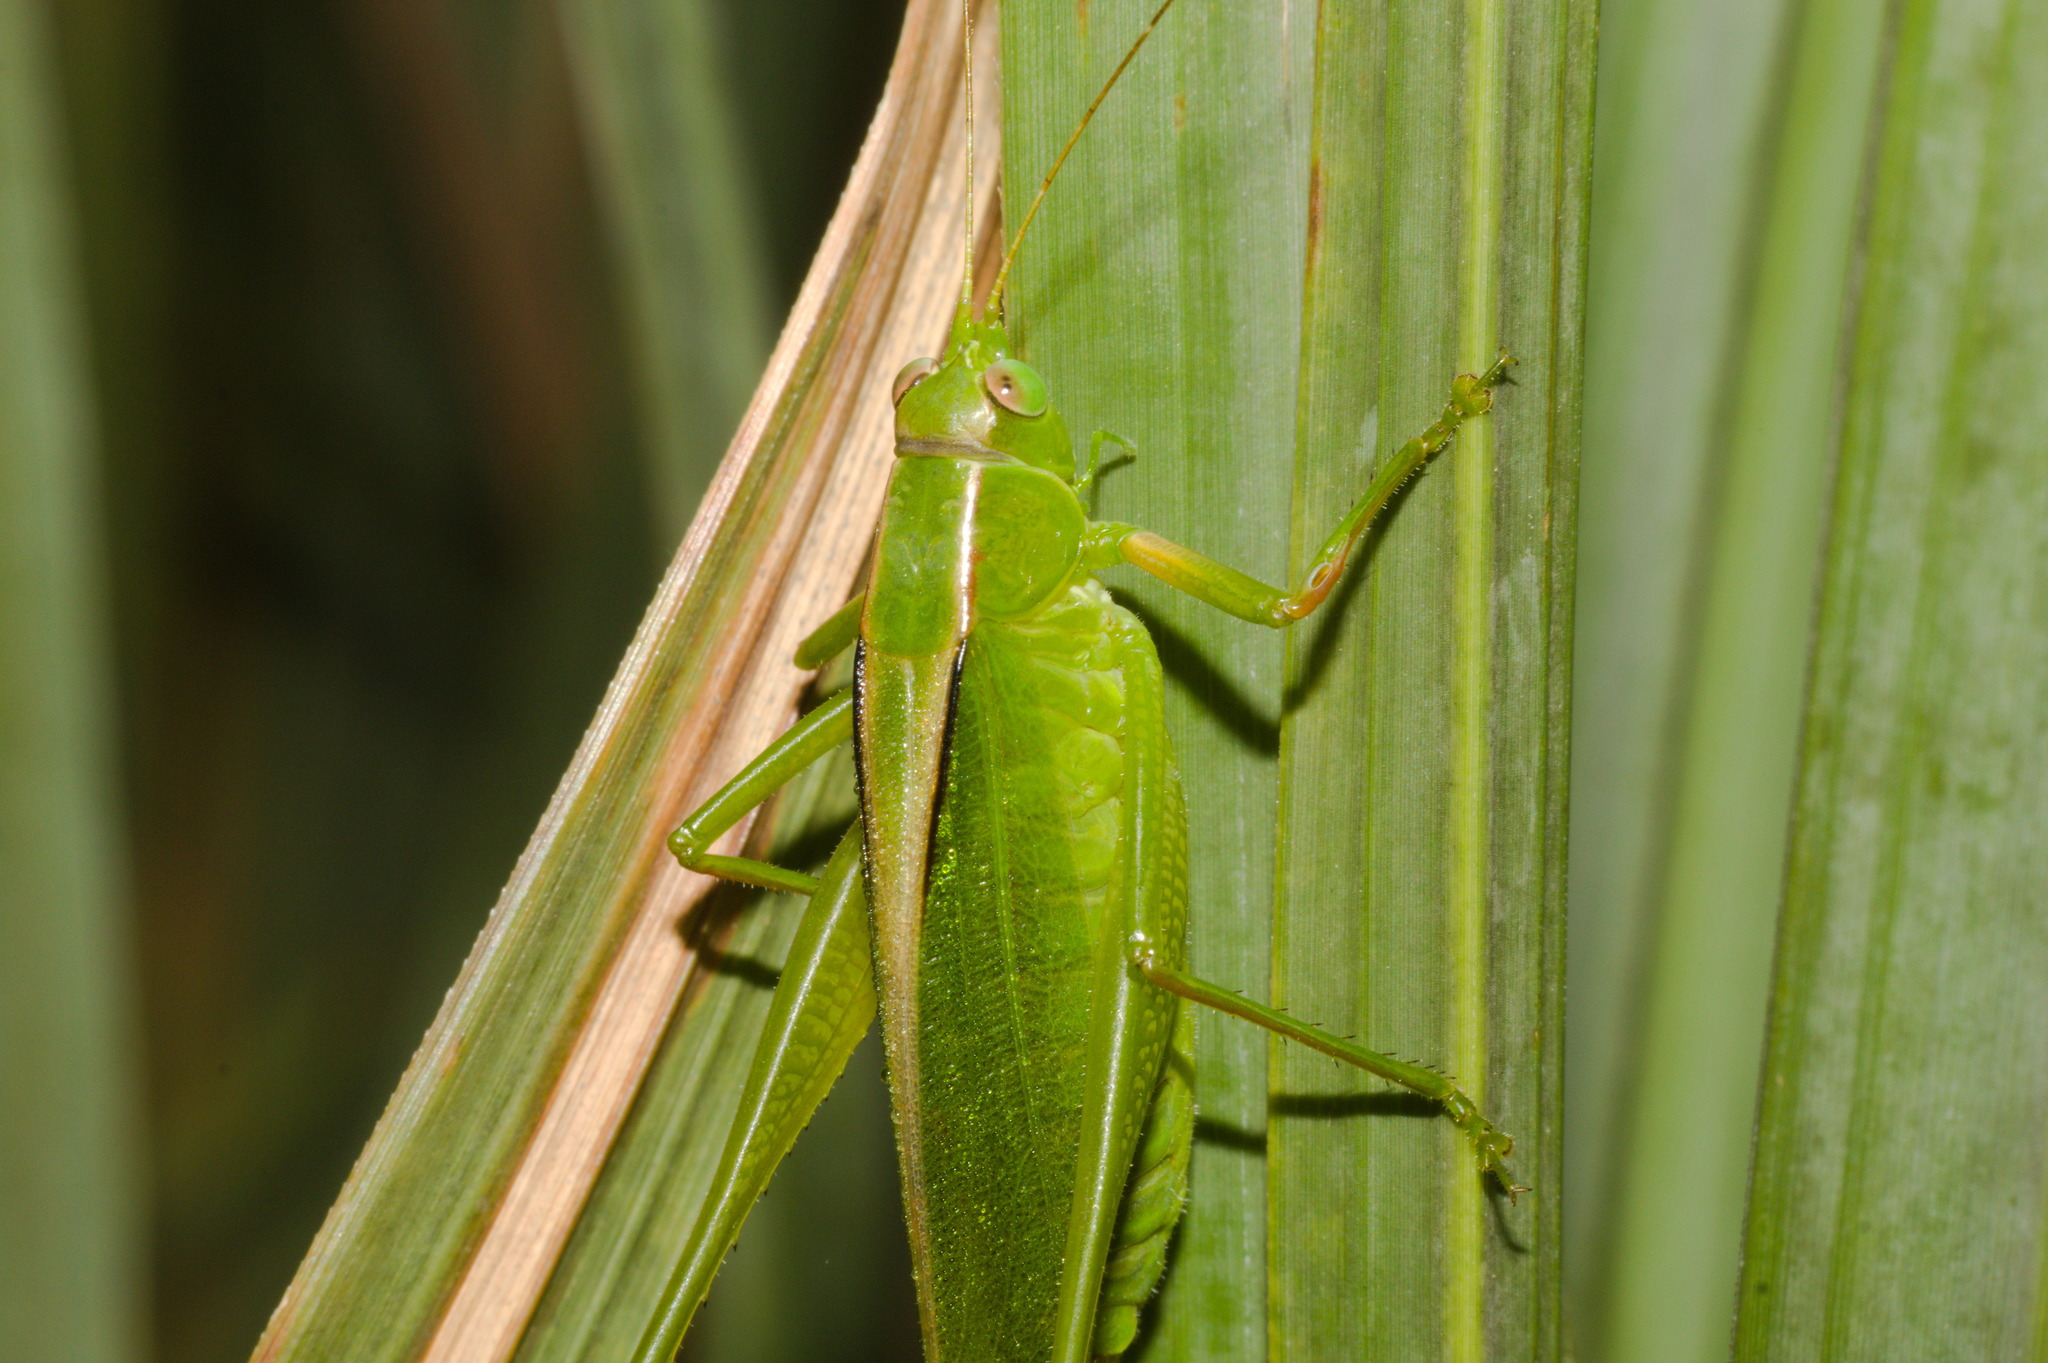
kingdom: Animalia
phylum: Arthropoda
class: Insecta
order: Orthoptera
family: Tettigoniidae
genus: Theudoria
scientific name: Theudoria melanocnemis
